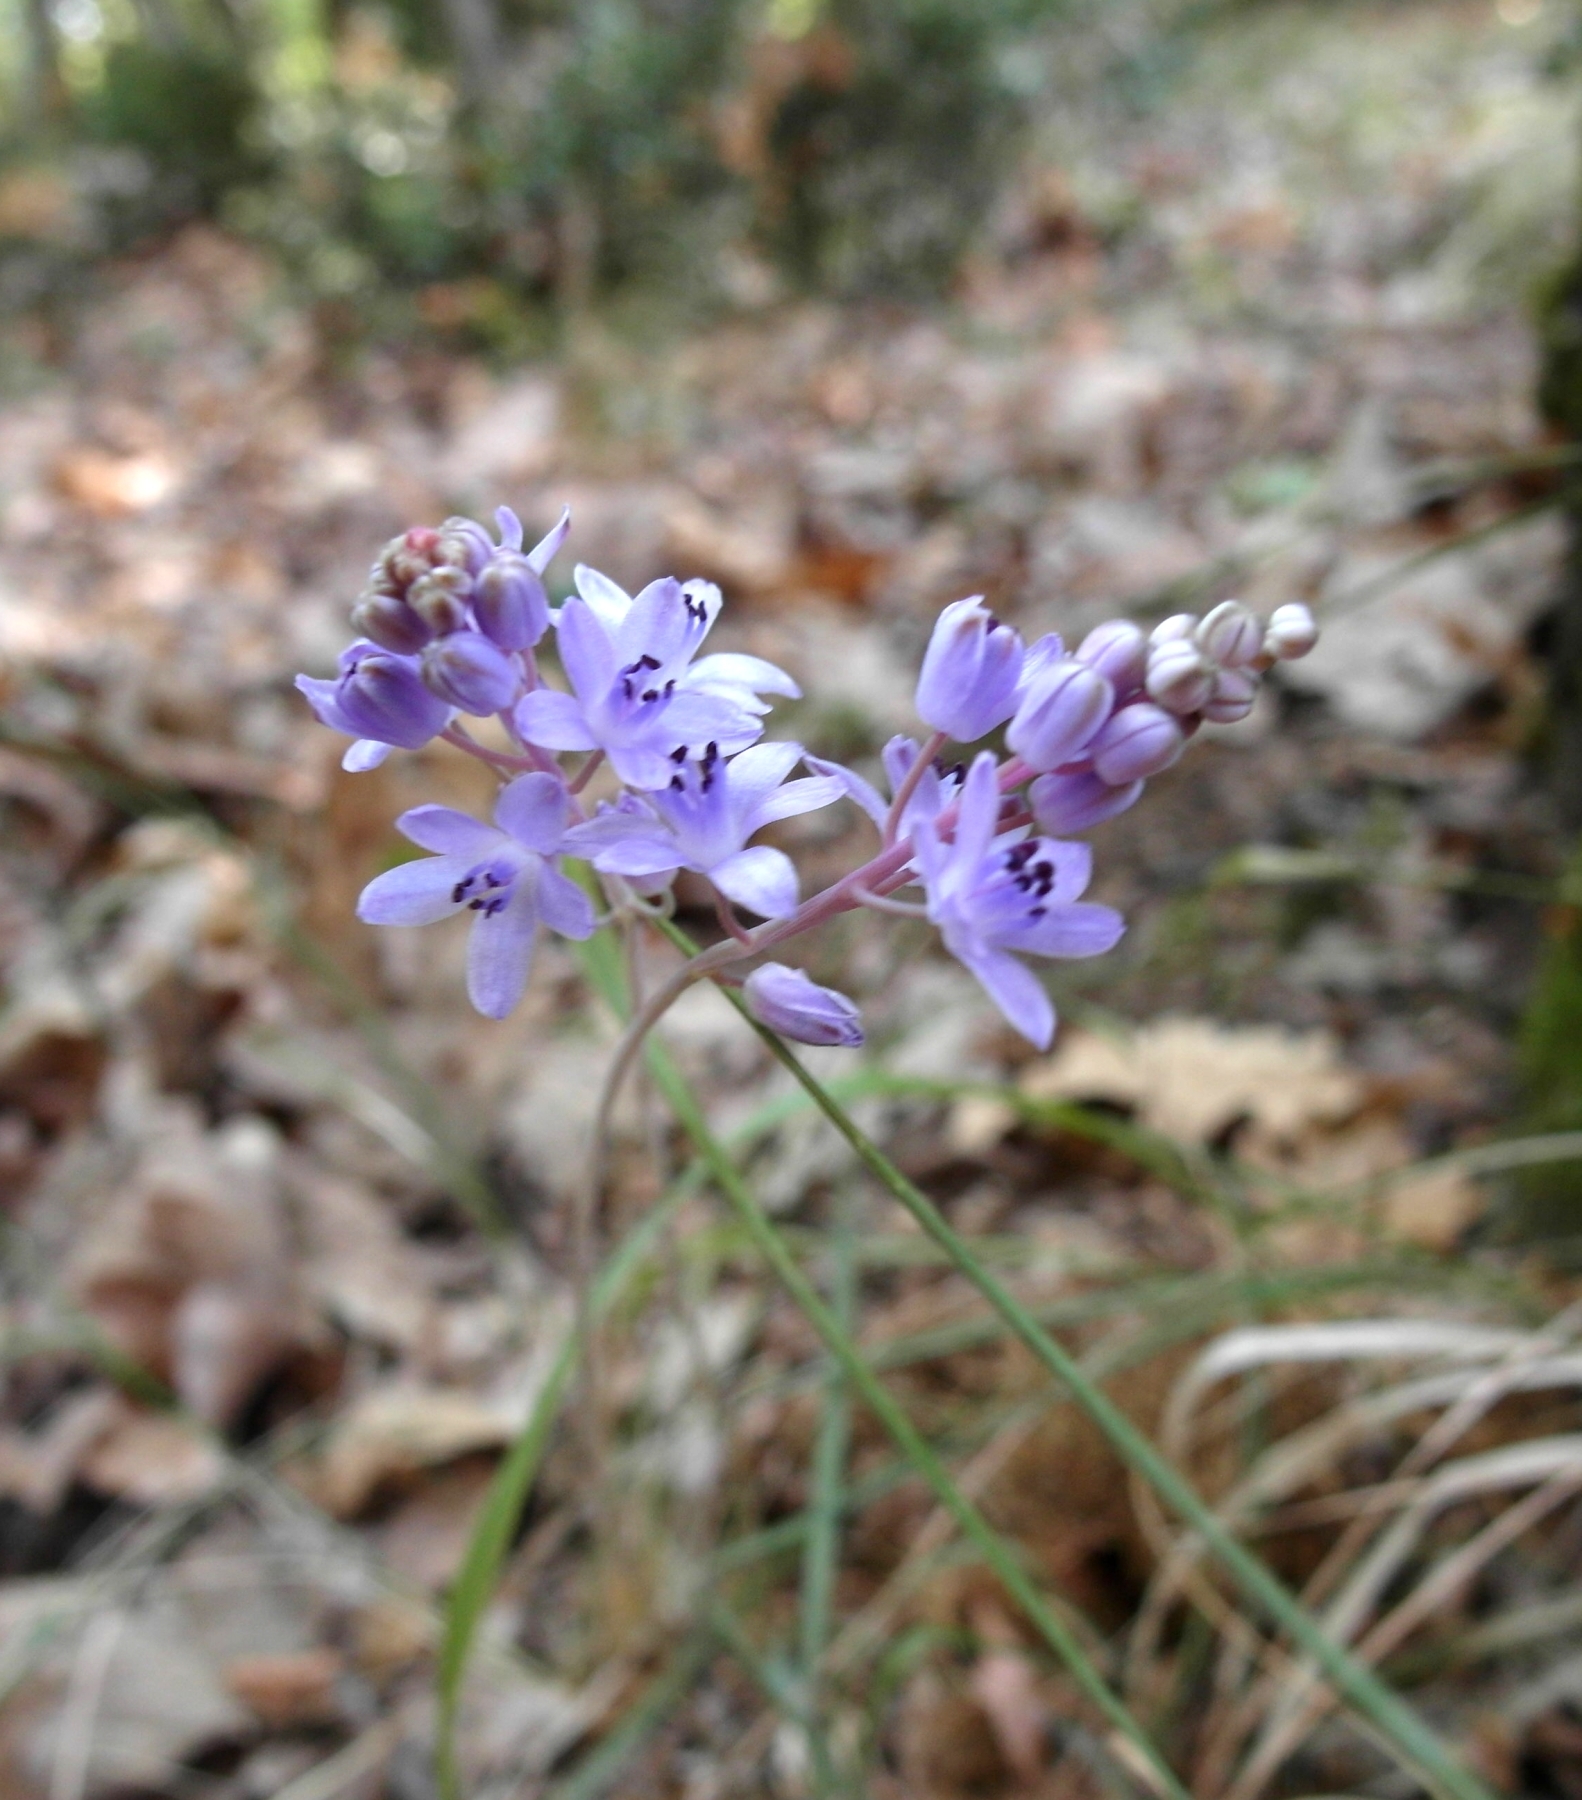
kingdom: Plantae
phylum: Tracheophyta
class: Liliopsida
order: Asparagales
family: Asparagaceae
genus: Prospero
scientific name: Prospero autumnale
